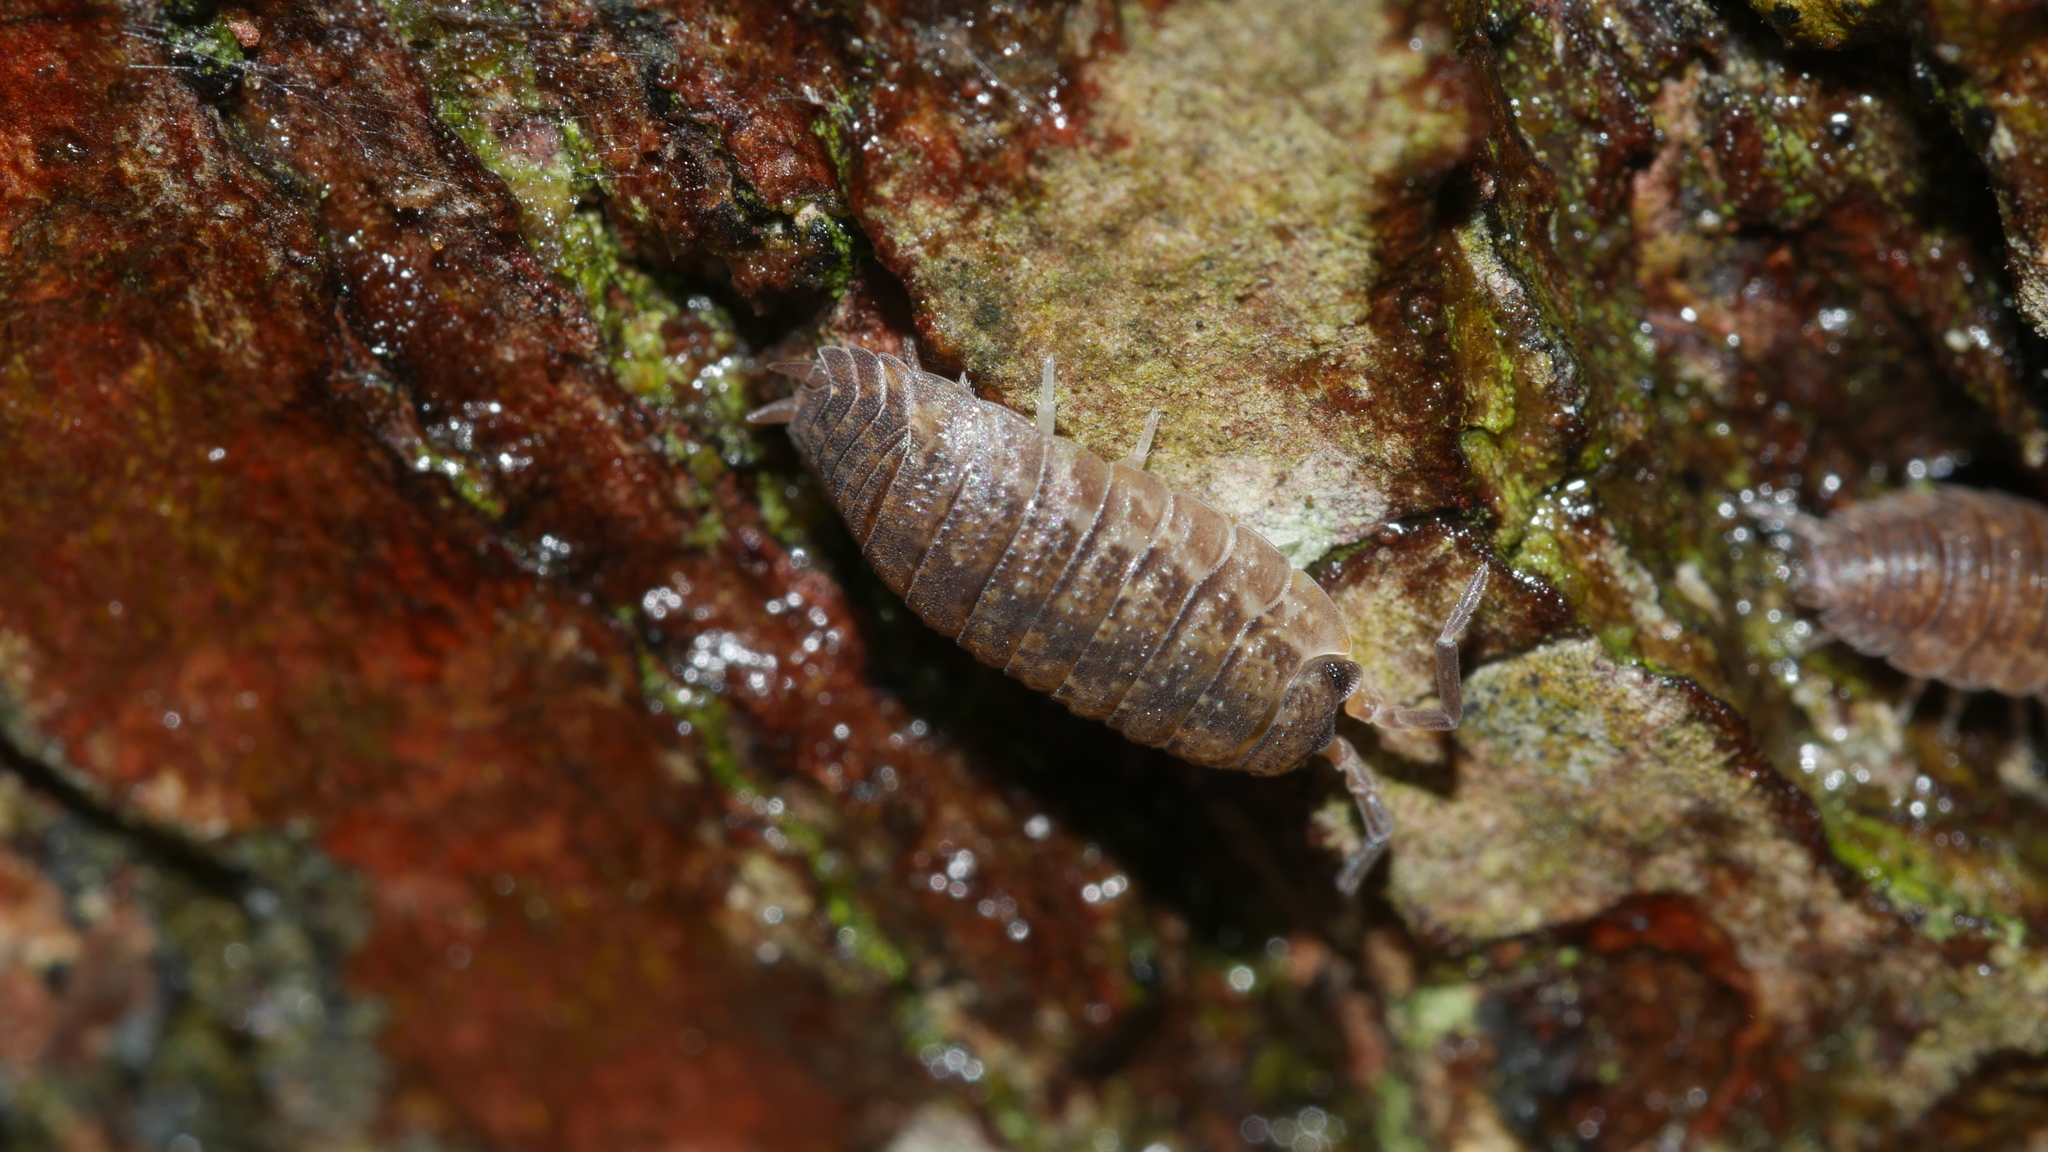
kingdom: Animalia
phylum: Arthropoda
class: Malacostraca
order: Isopoda
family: Porcellionidae
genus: Porcellio
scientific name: Porcellio scaber
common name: Common rough woodlouse
